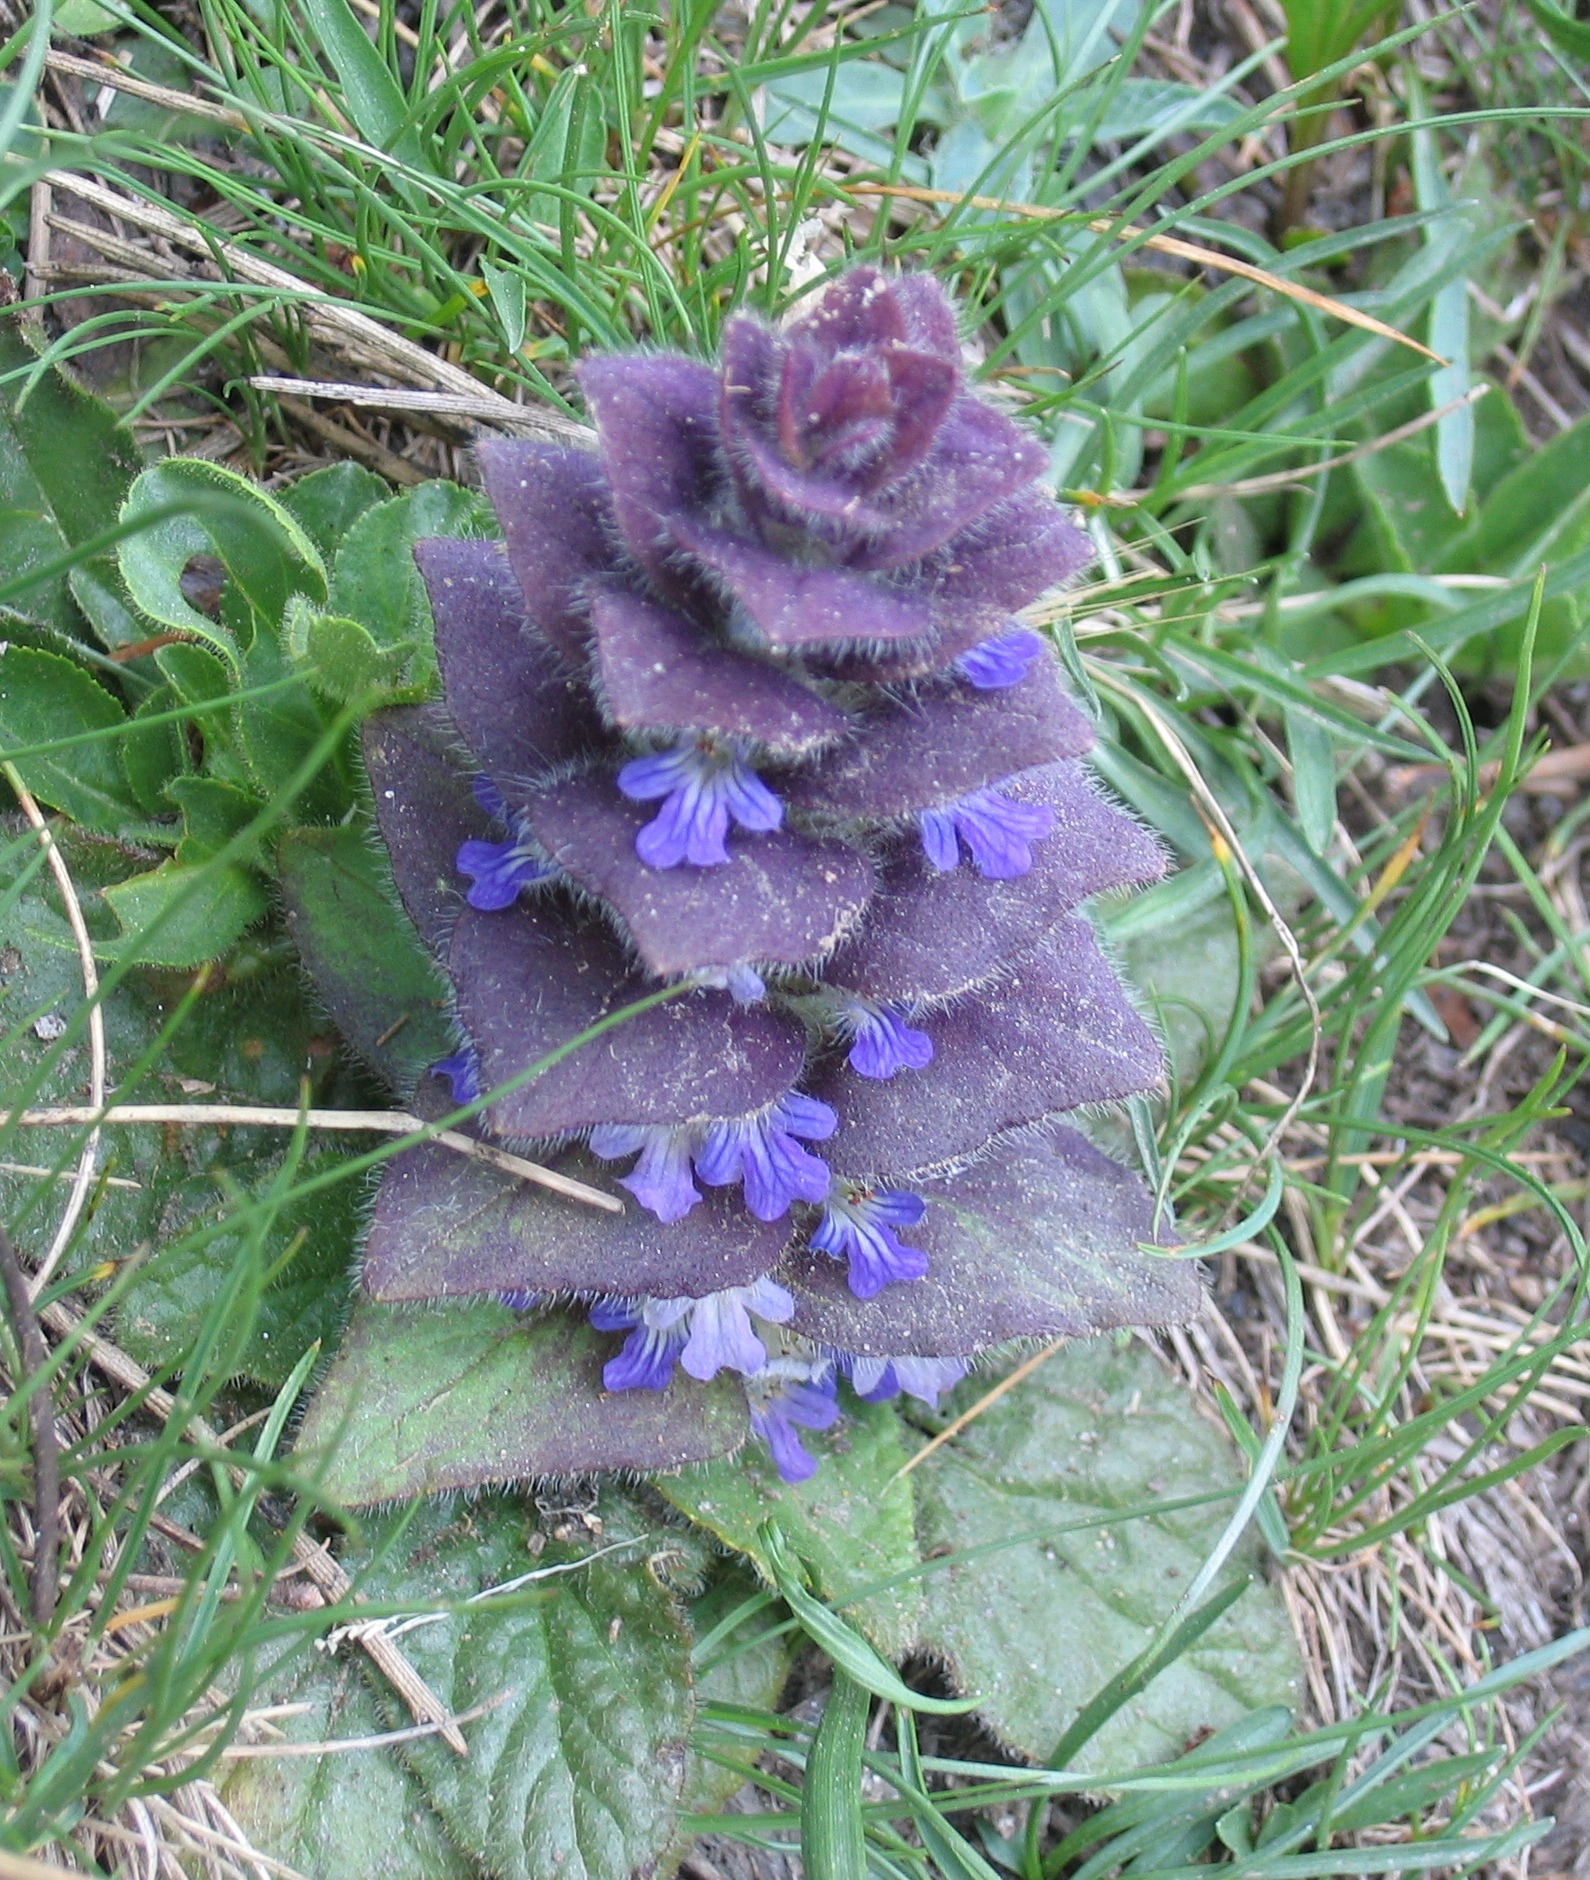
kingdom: Plantae
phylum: Tracheophyta
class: Magnoliopsida
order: Lamiales
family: Lamiaceae
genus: Ajuga
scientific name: Ajuga pyramidalis
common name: Pyramid bugle
